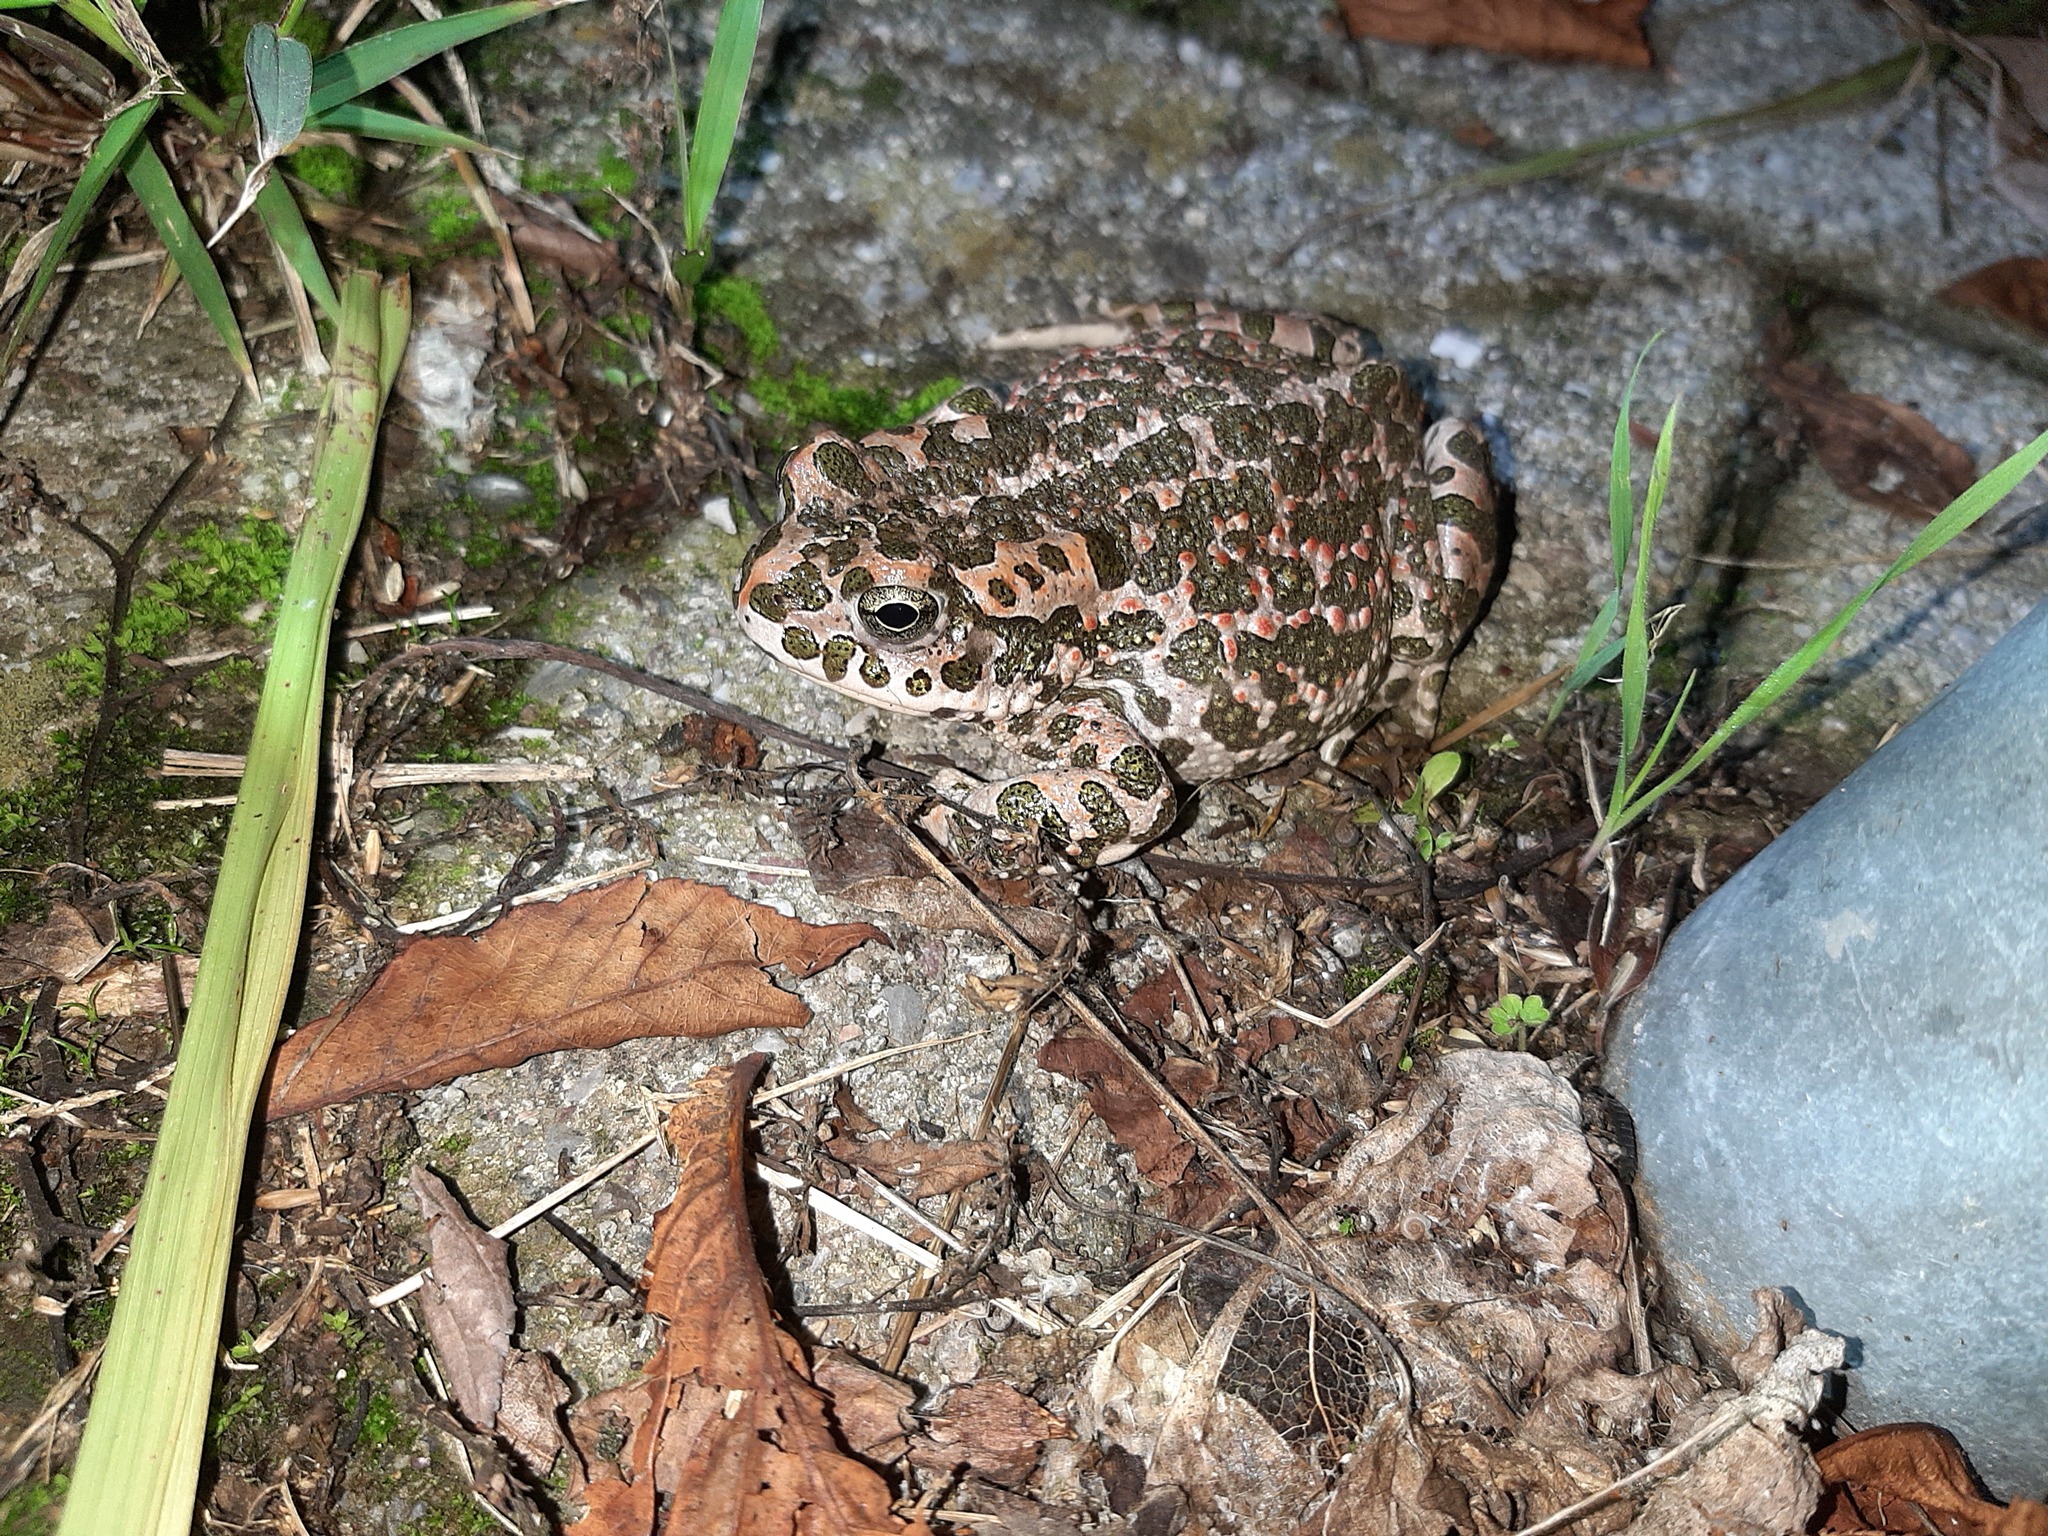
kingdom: Animalia
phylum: Chordata
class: Amphibia
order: Anura
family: Bufonidae
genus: Bufotes
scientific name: Bufotes viridis
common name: European green toad
